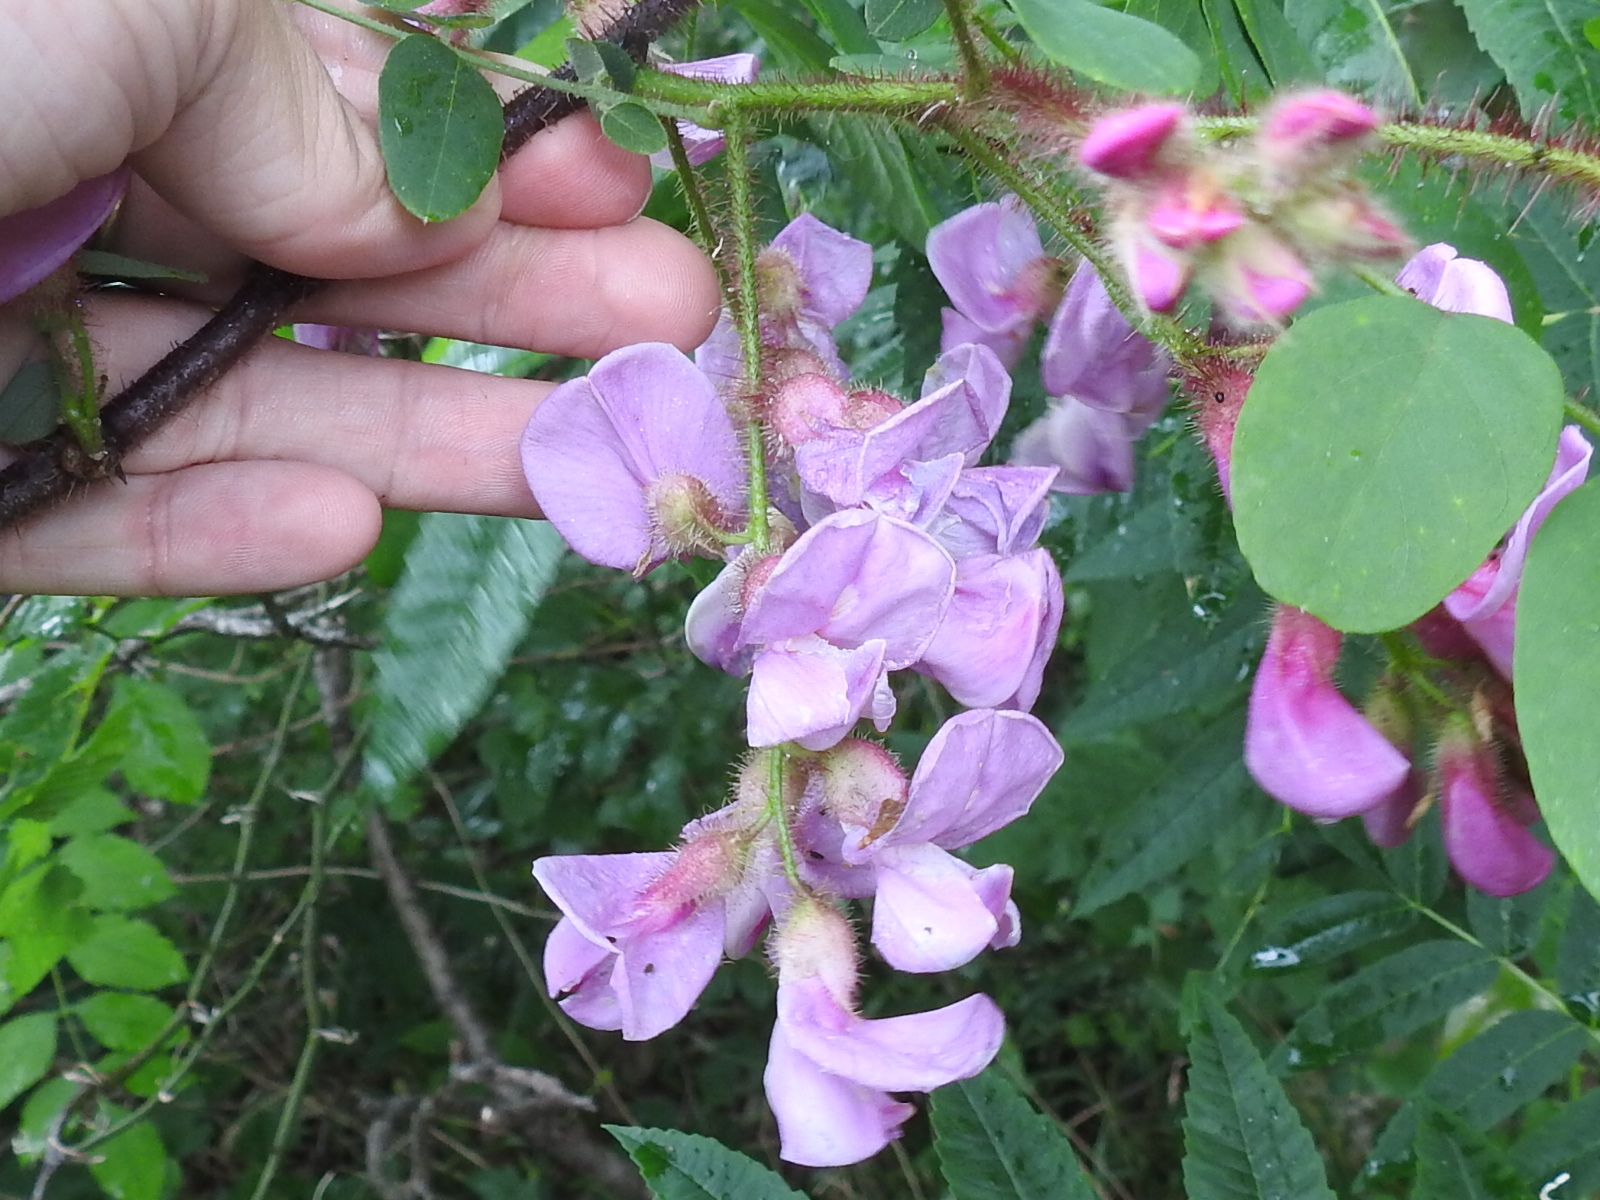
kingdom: Plantae
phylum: Tracheophyta
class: Magnoliopsida
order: Fabales
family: Fabaceae
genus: Robinia
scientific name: Robinia hispida
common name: Bristly locust
